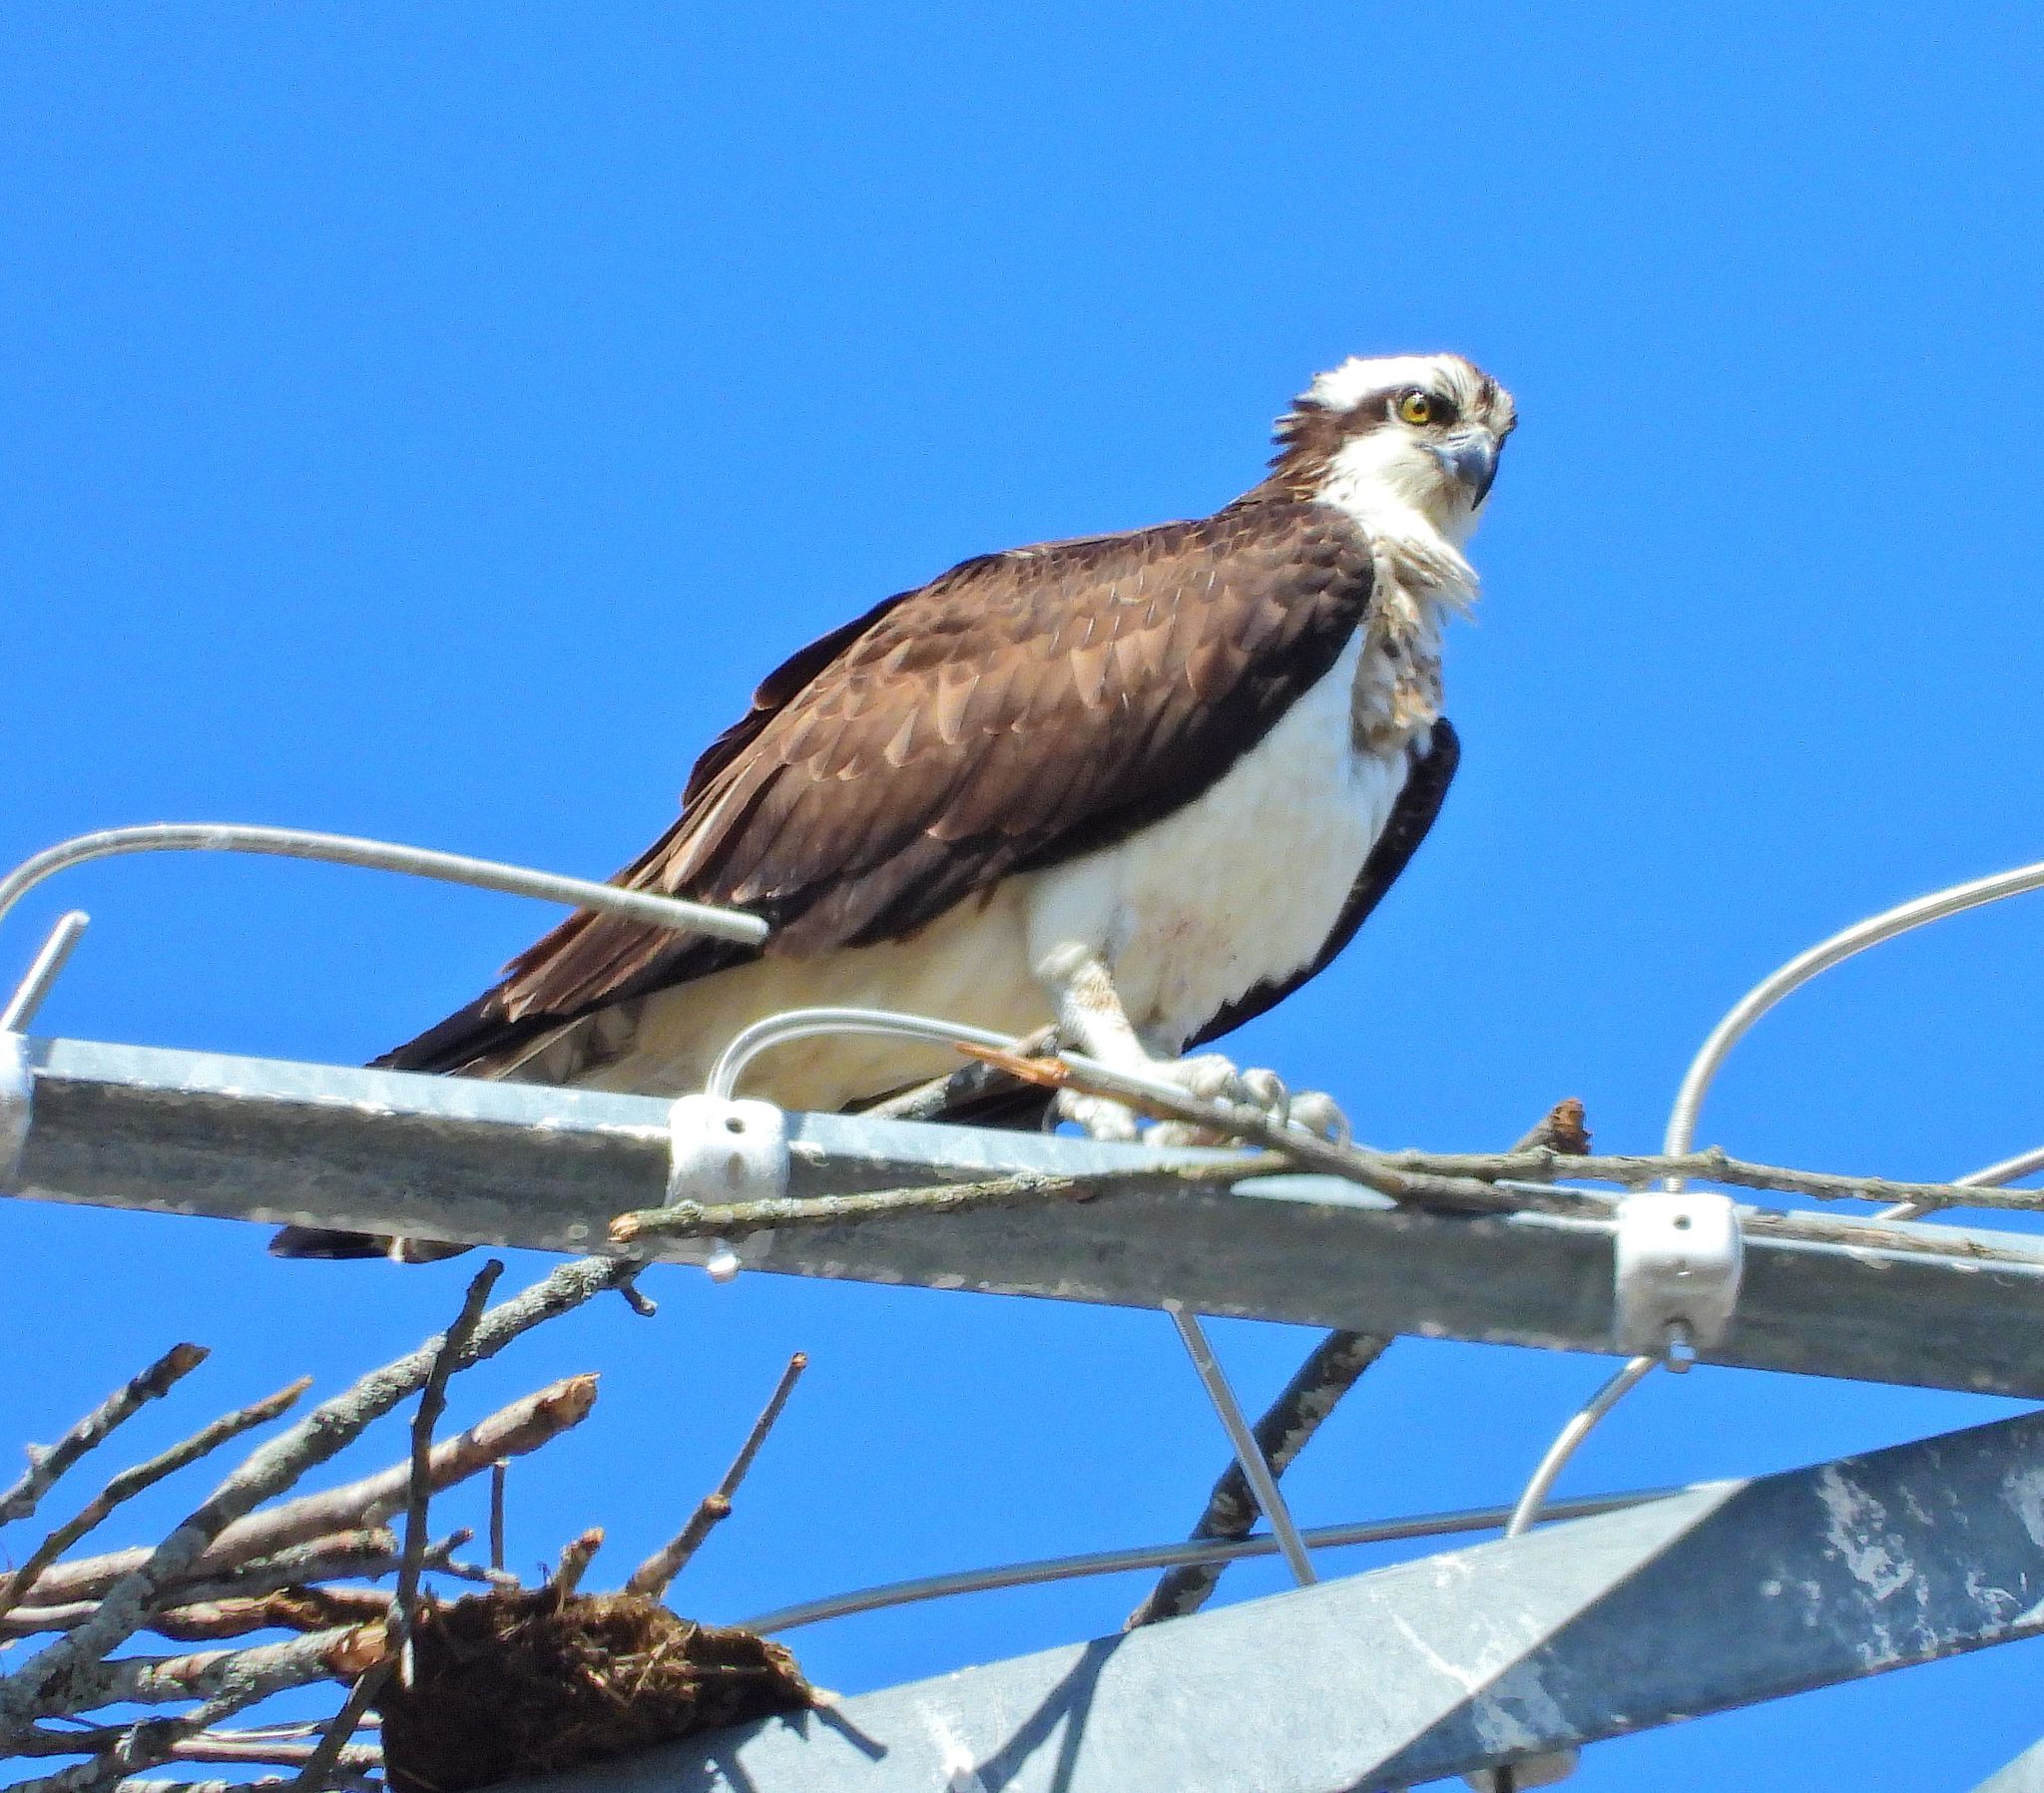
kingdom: Animalia
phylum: Chordata
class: Aves
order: Accipitriformes
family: Pandionidae
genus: Pandion
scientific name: Pandion haliaetus
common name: Osprey
